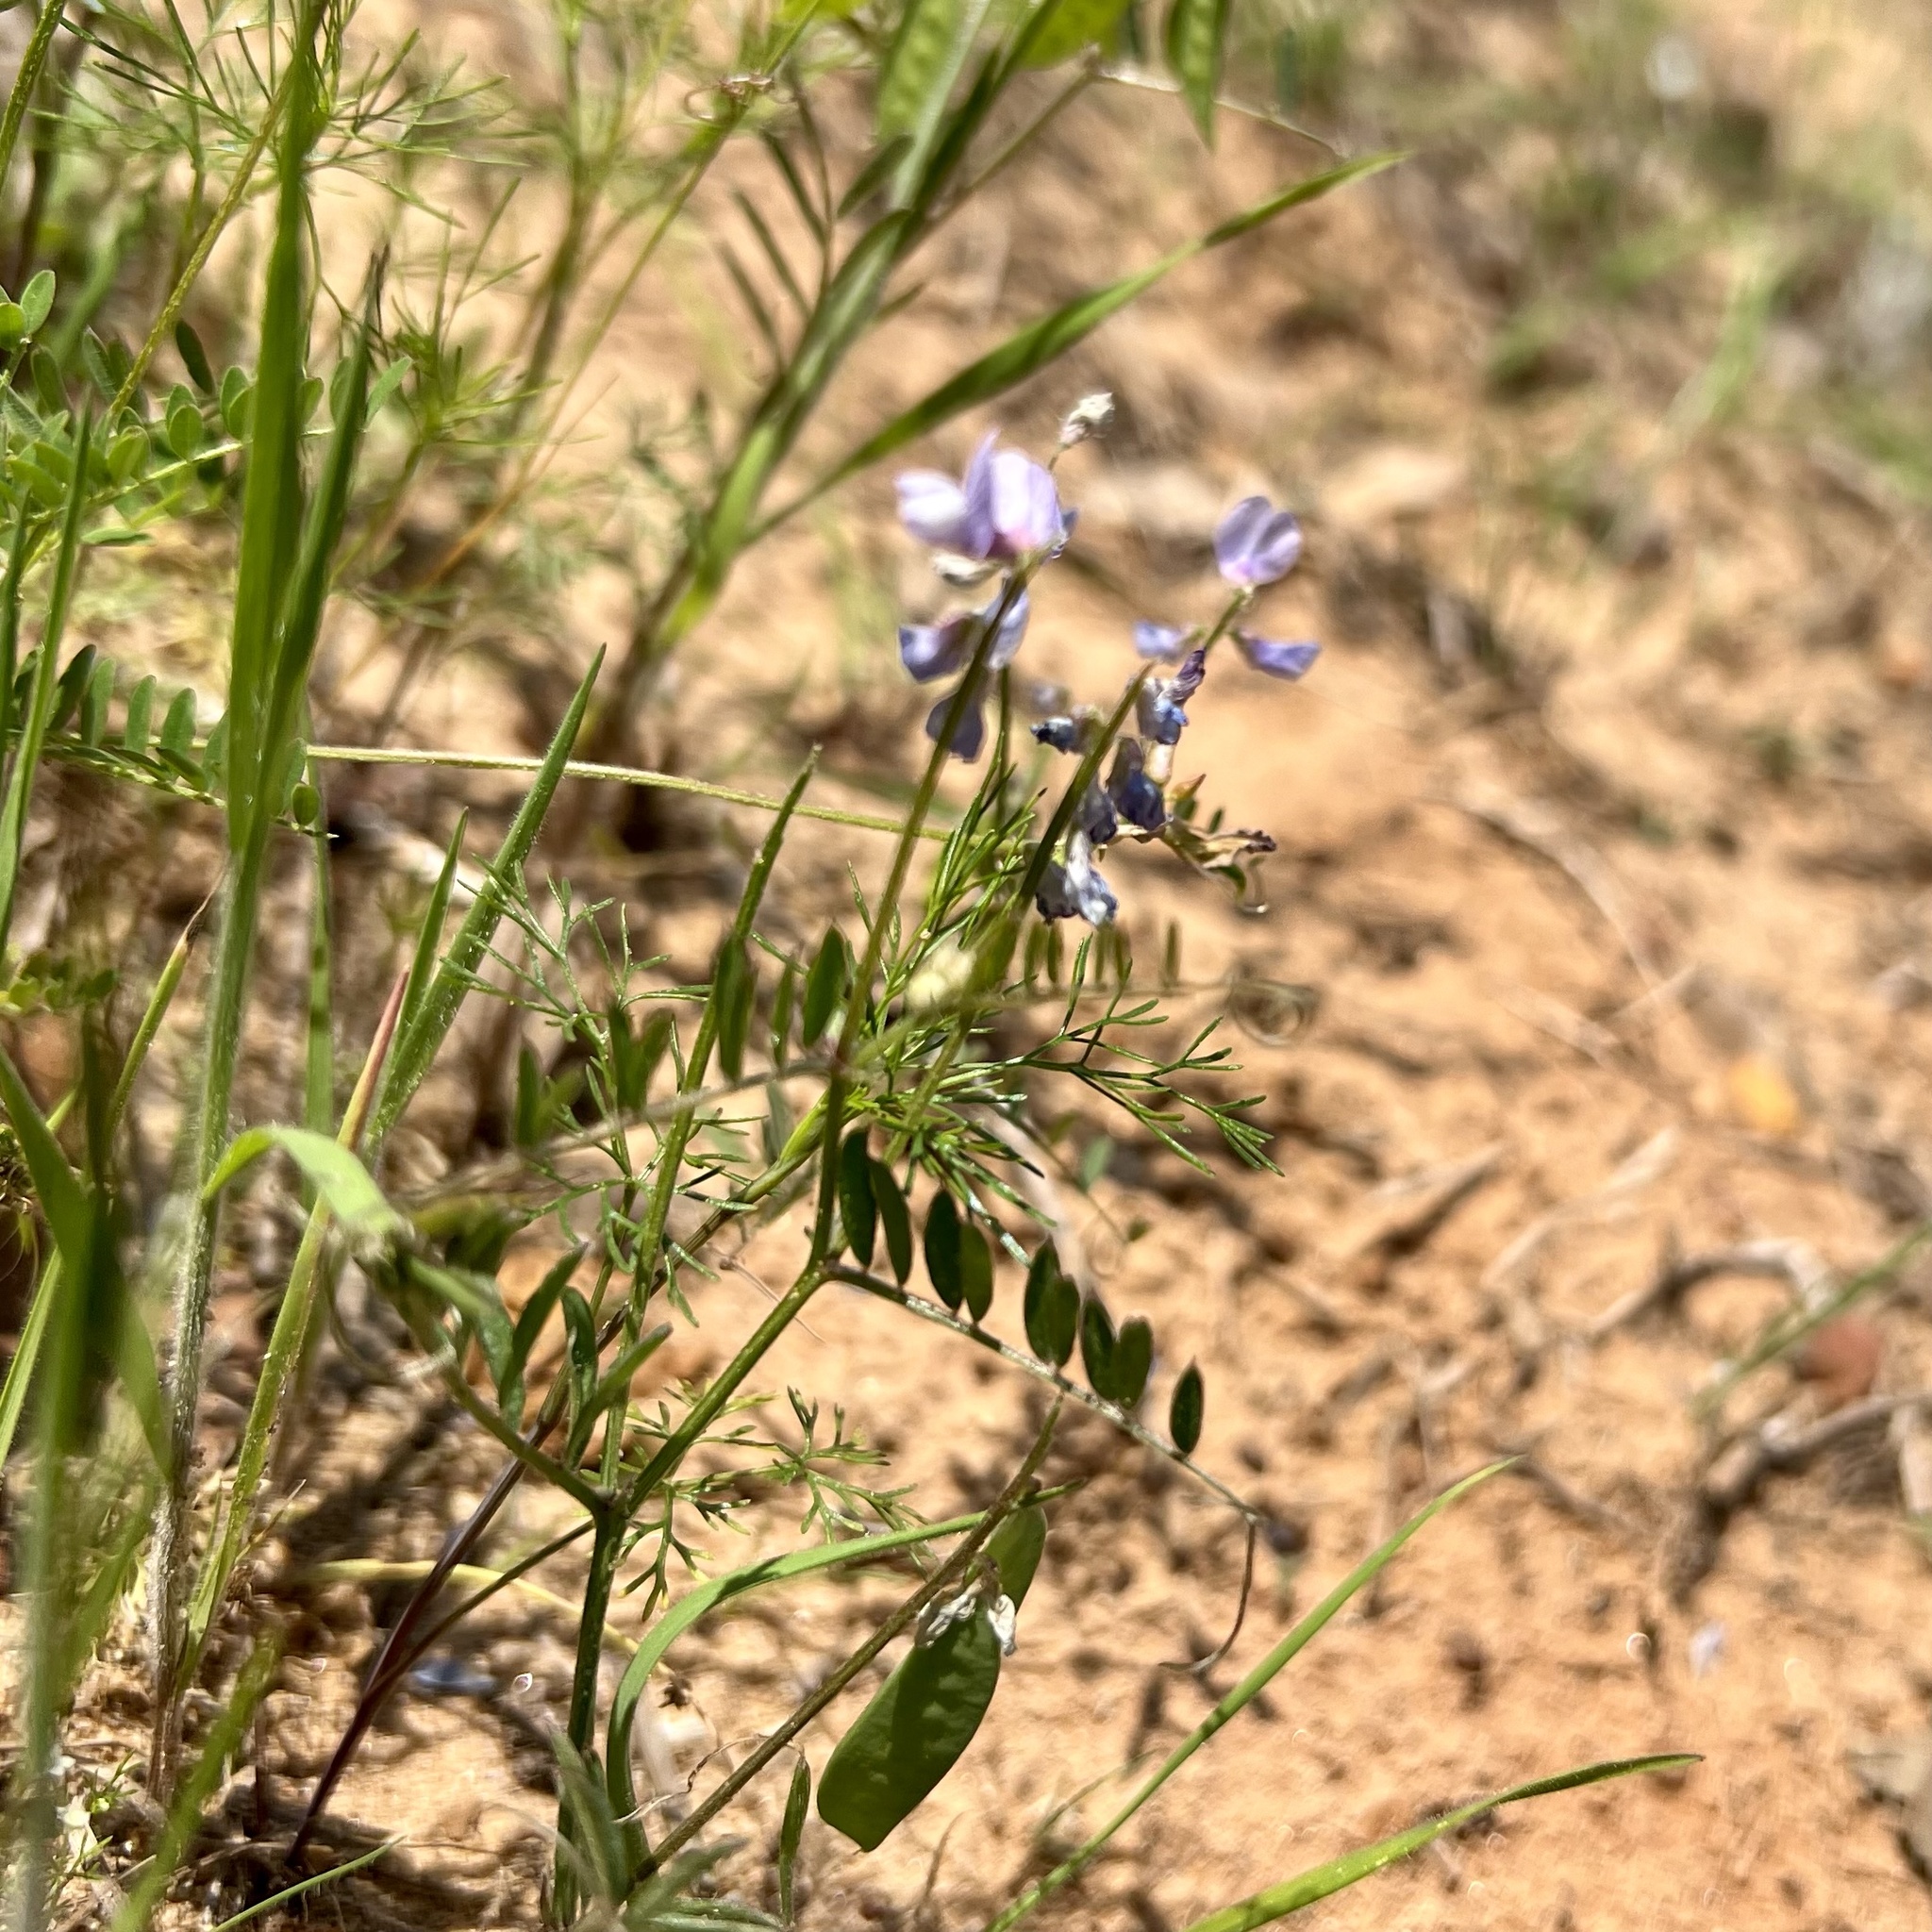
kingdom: Plantae
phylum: Tracheophyta
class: Magnoliopsida
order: Fabales
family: Fabaceae
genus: Vicia
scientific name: Vicia ludoviciana
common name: Louisiana vetch
